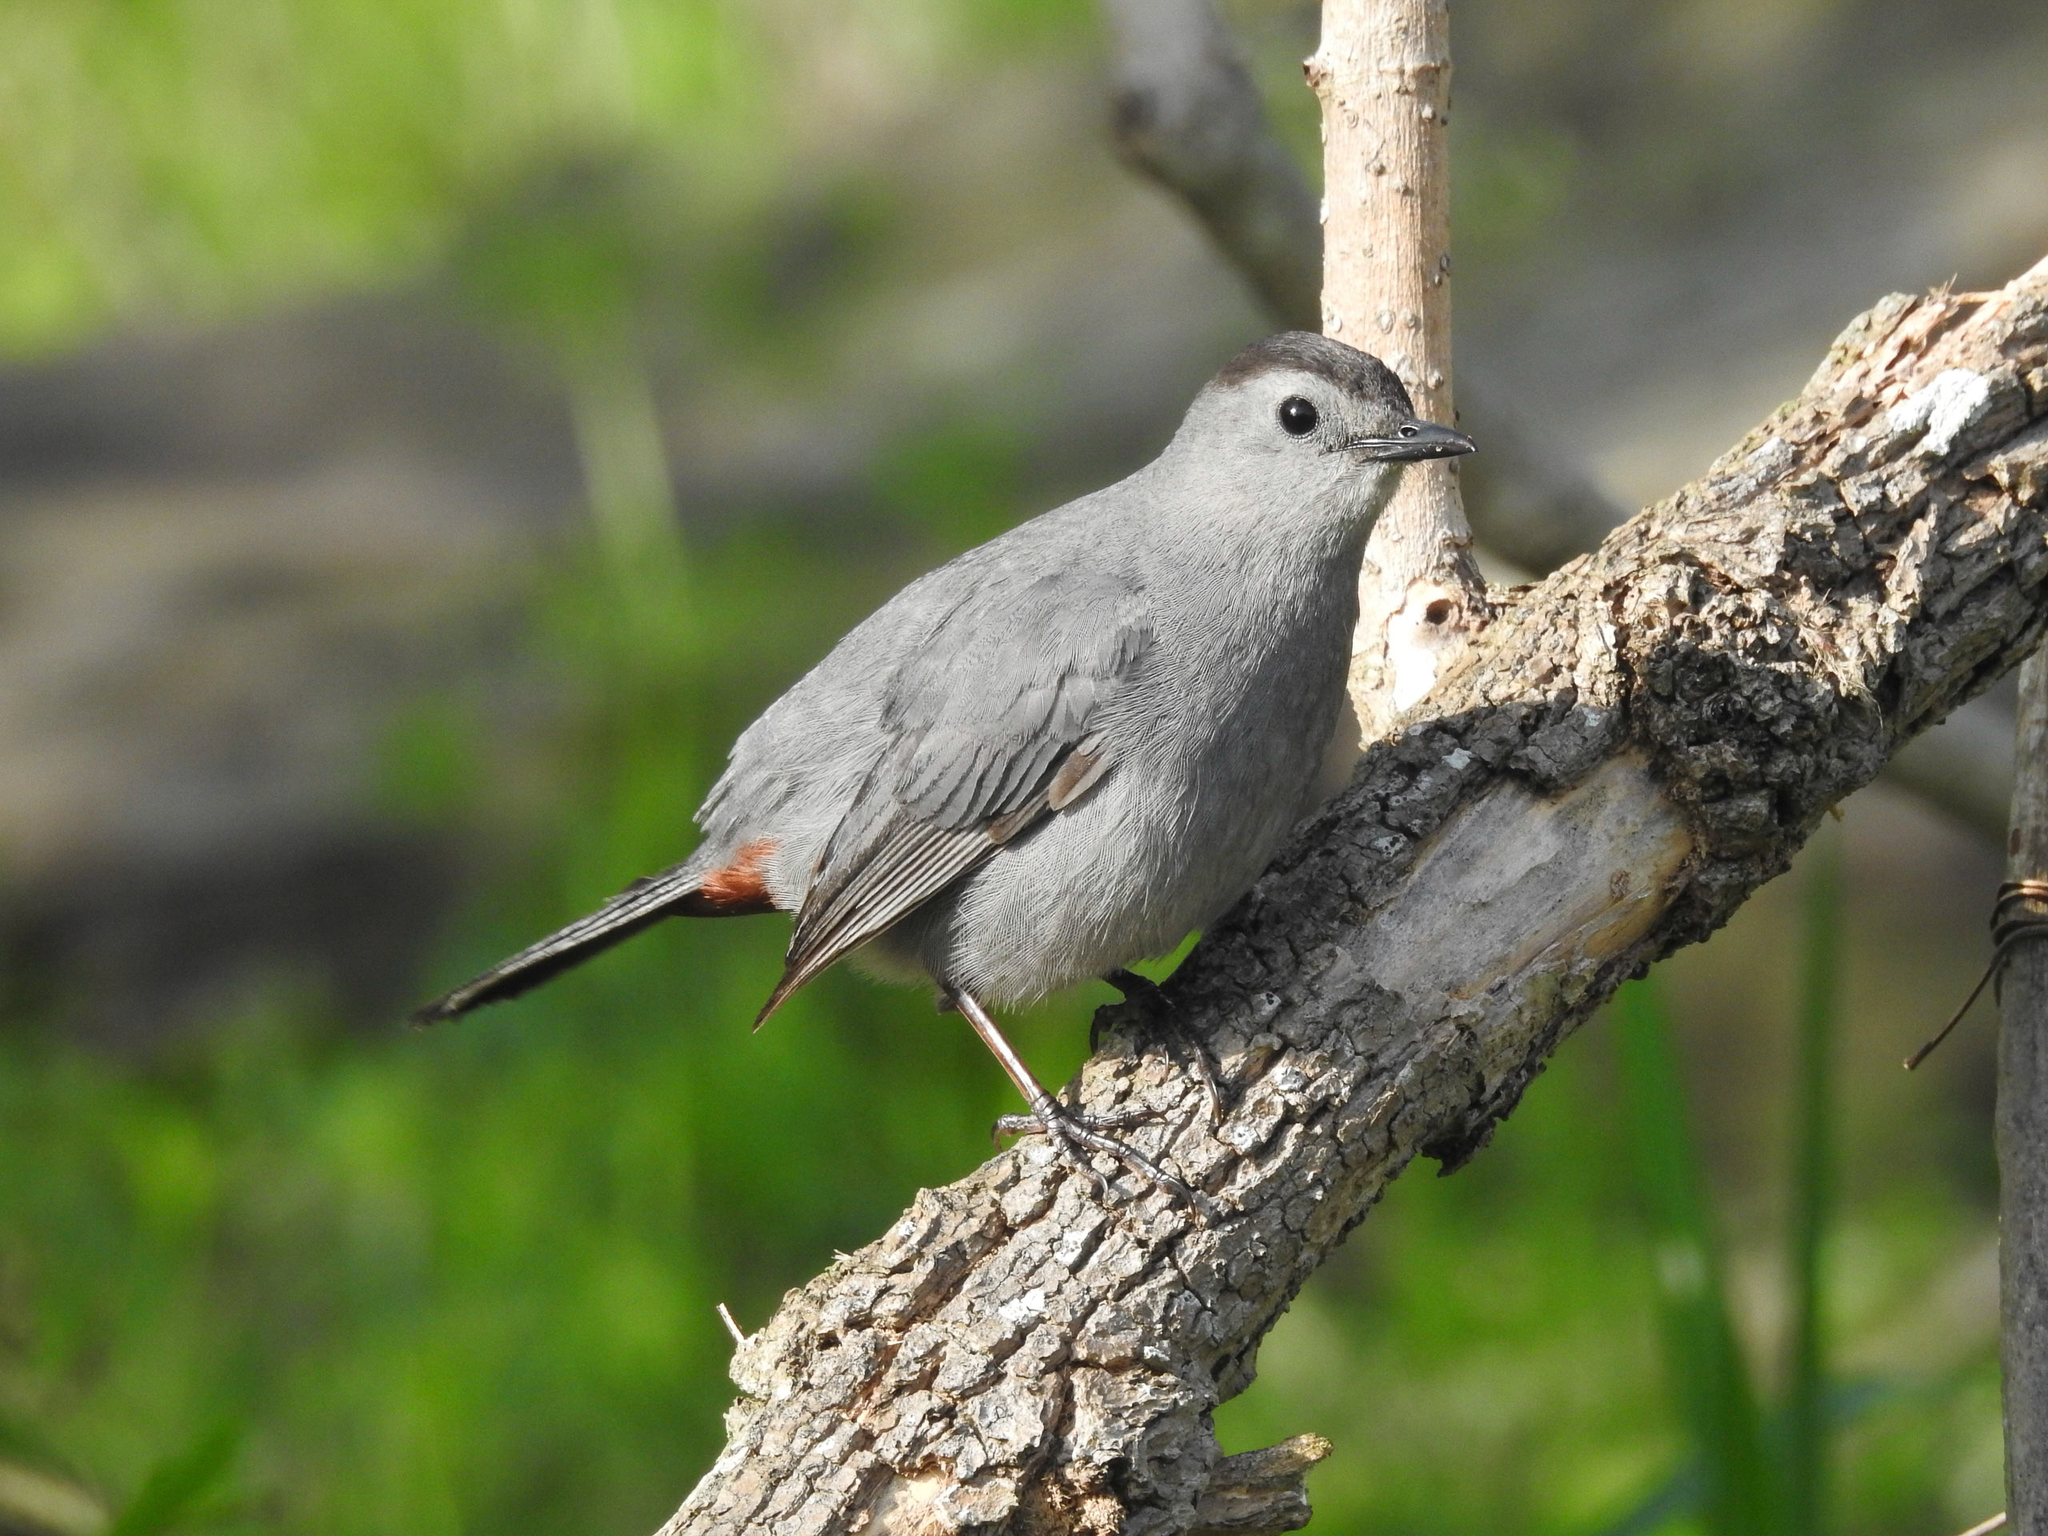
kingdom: Animalia
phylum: Chordata
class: Aves
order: Passeriformes
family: Mimidae
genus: Dumetella
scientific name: Dumetella carolinensis
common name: Gray catbird
